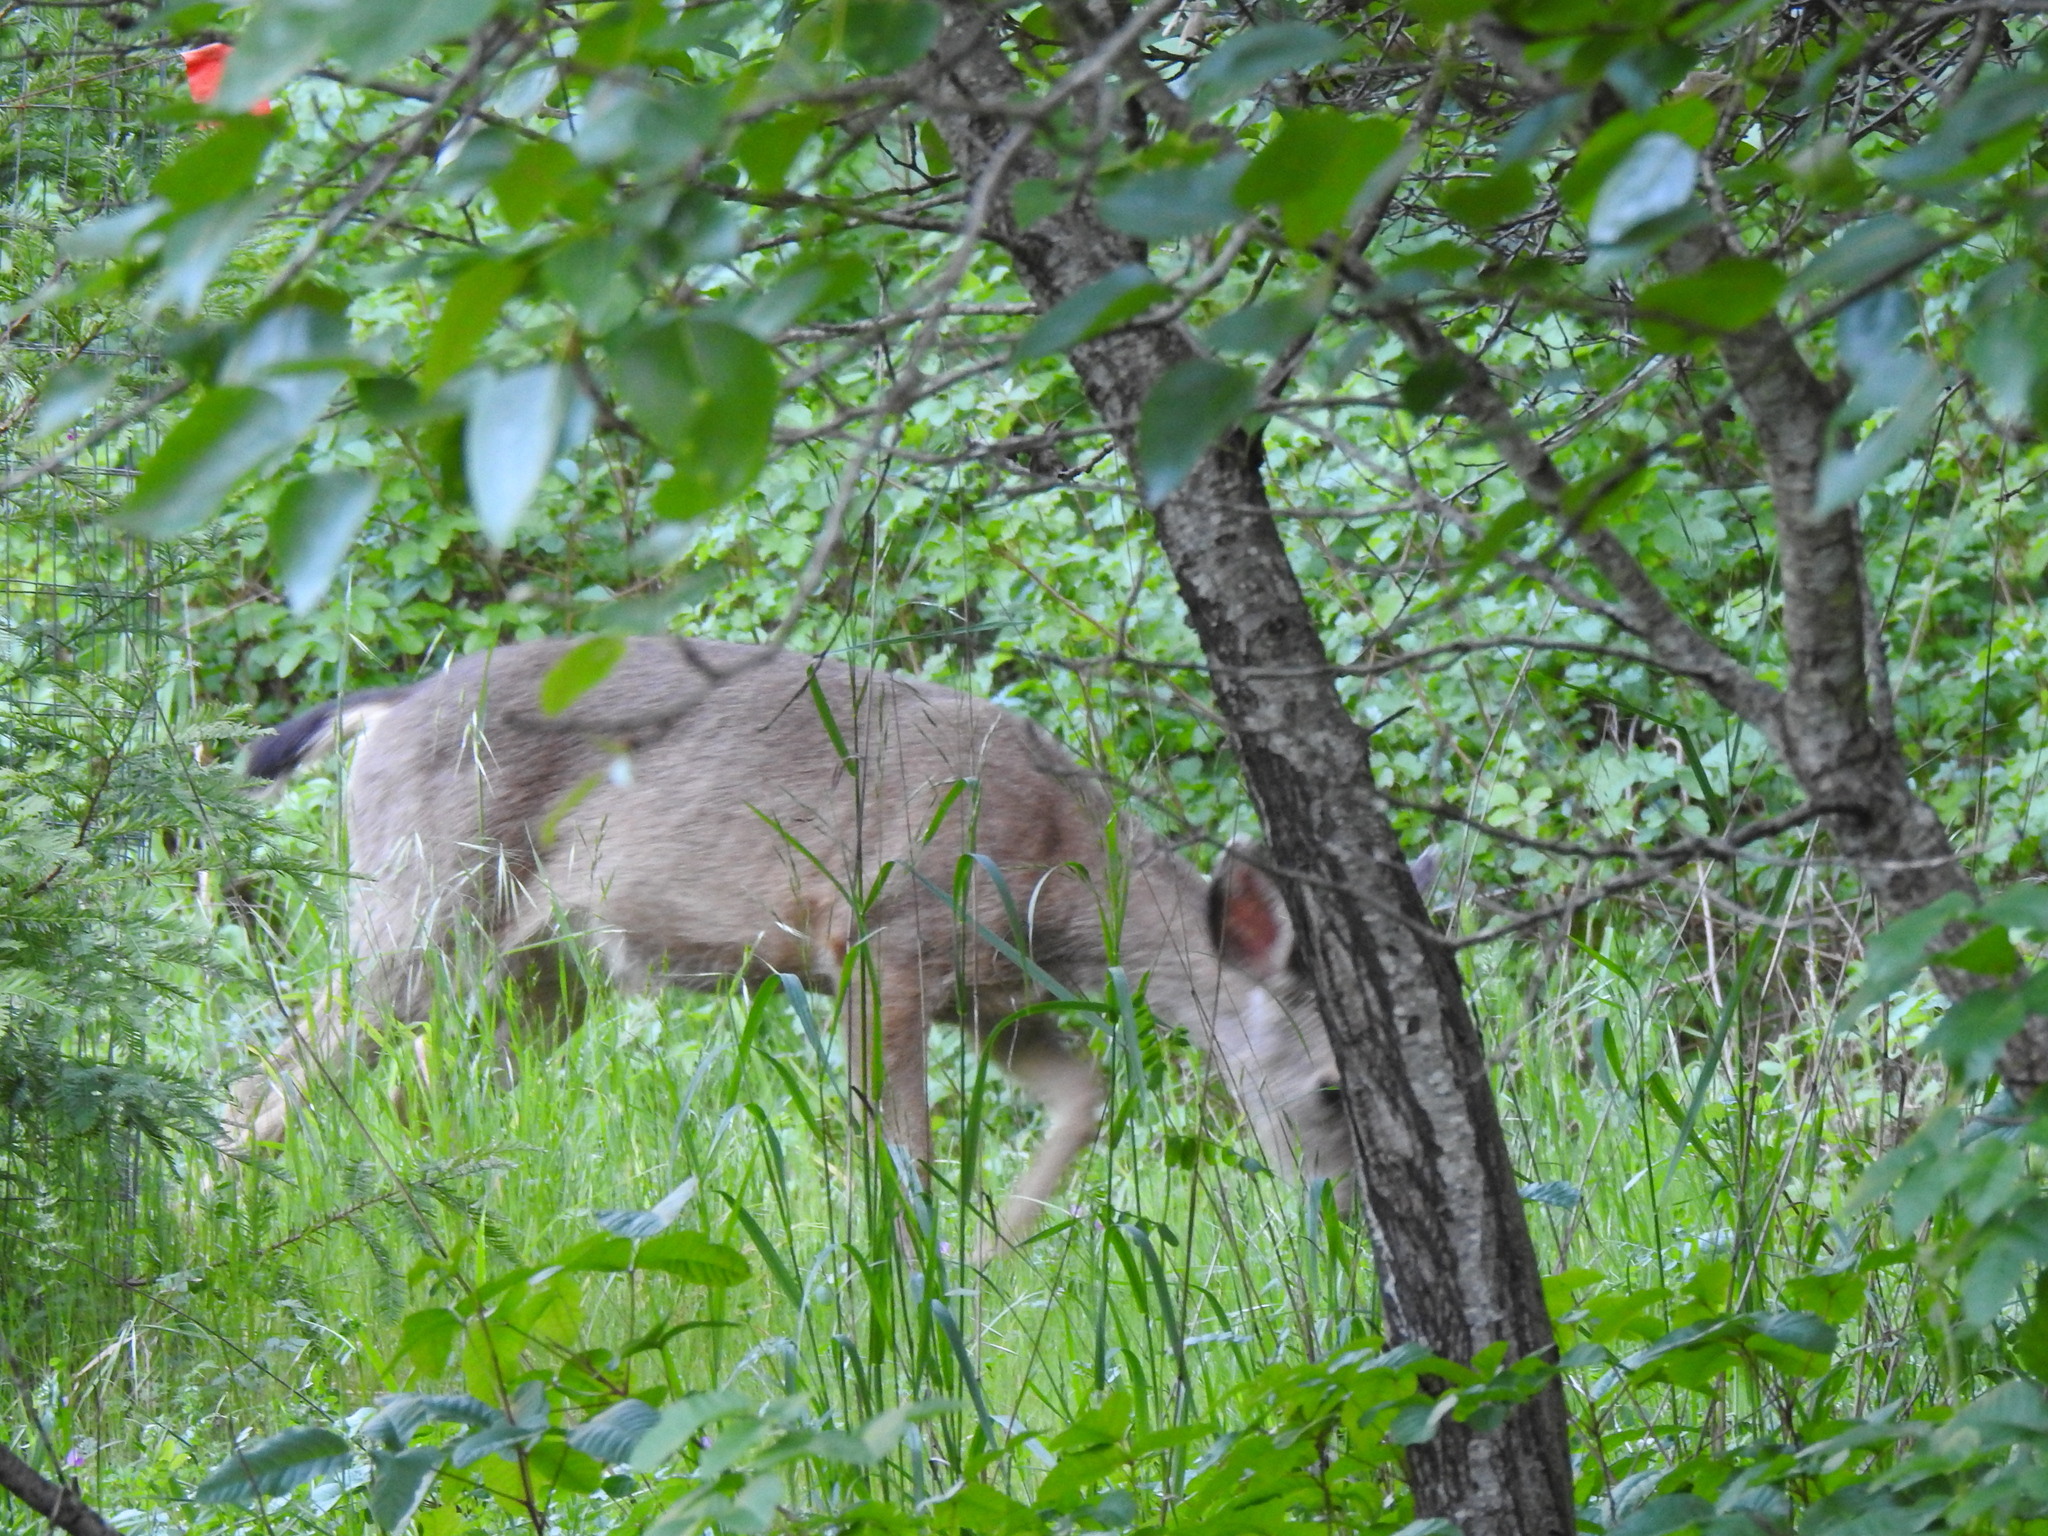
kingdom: Animalia
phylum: Chordata
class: Mammalia
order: Artiodactyla
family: Cervidae
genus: Odocoileus
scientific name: Odocoileus hemionus
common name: Mule deer
